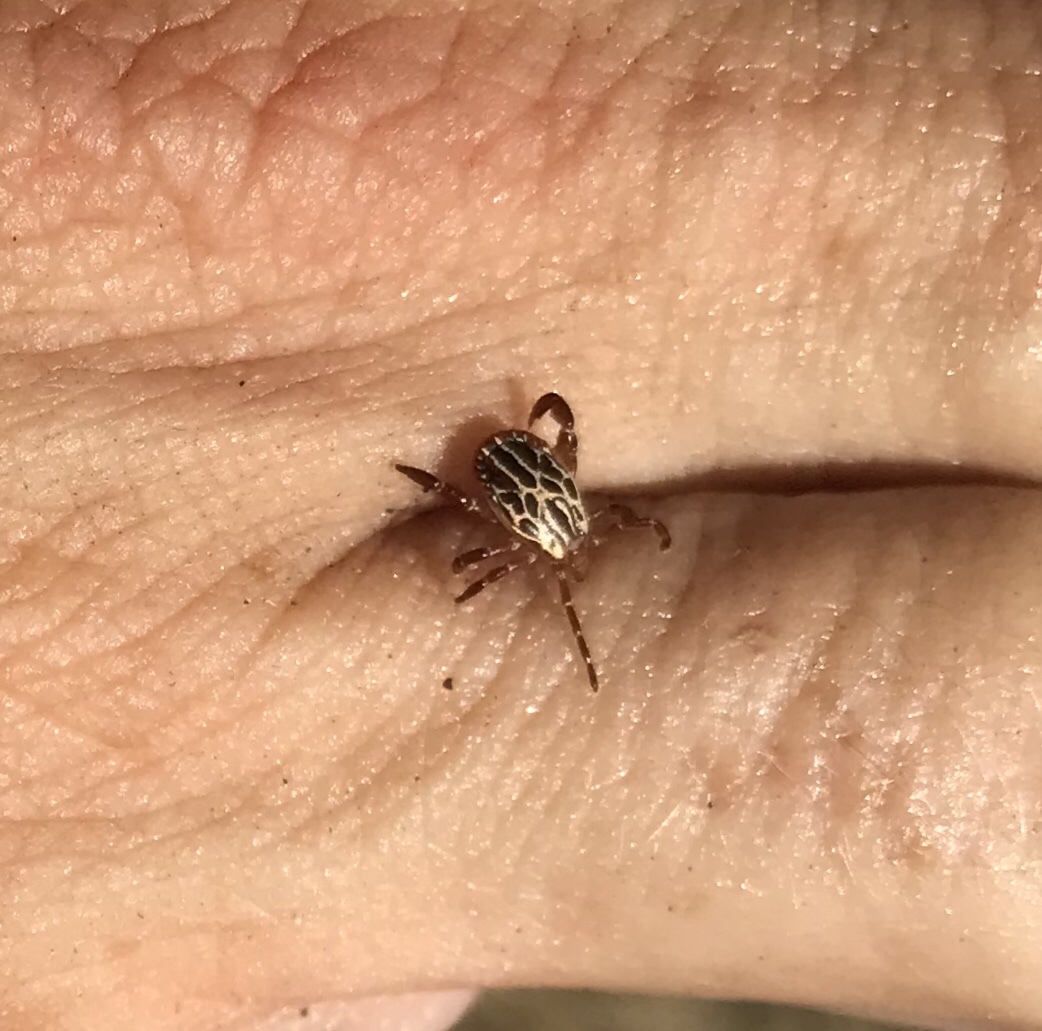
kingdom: Animalia
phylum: Arthropoda
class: Arachnida
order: Ixodida
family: Ixodidae
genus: Amblyomma
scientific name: Amblyomma maculatum
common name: Gulf coast tick
